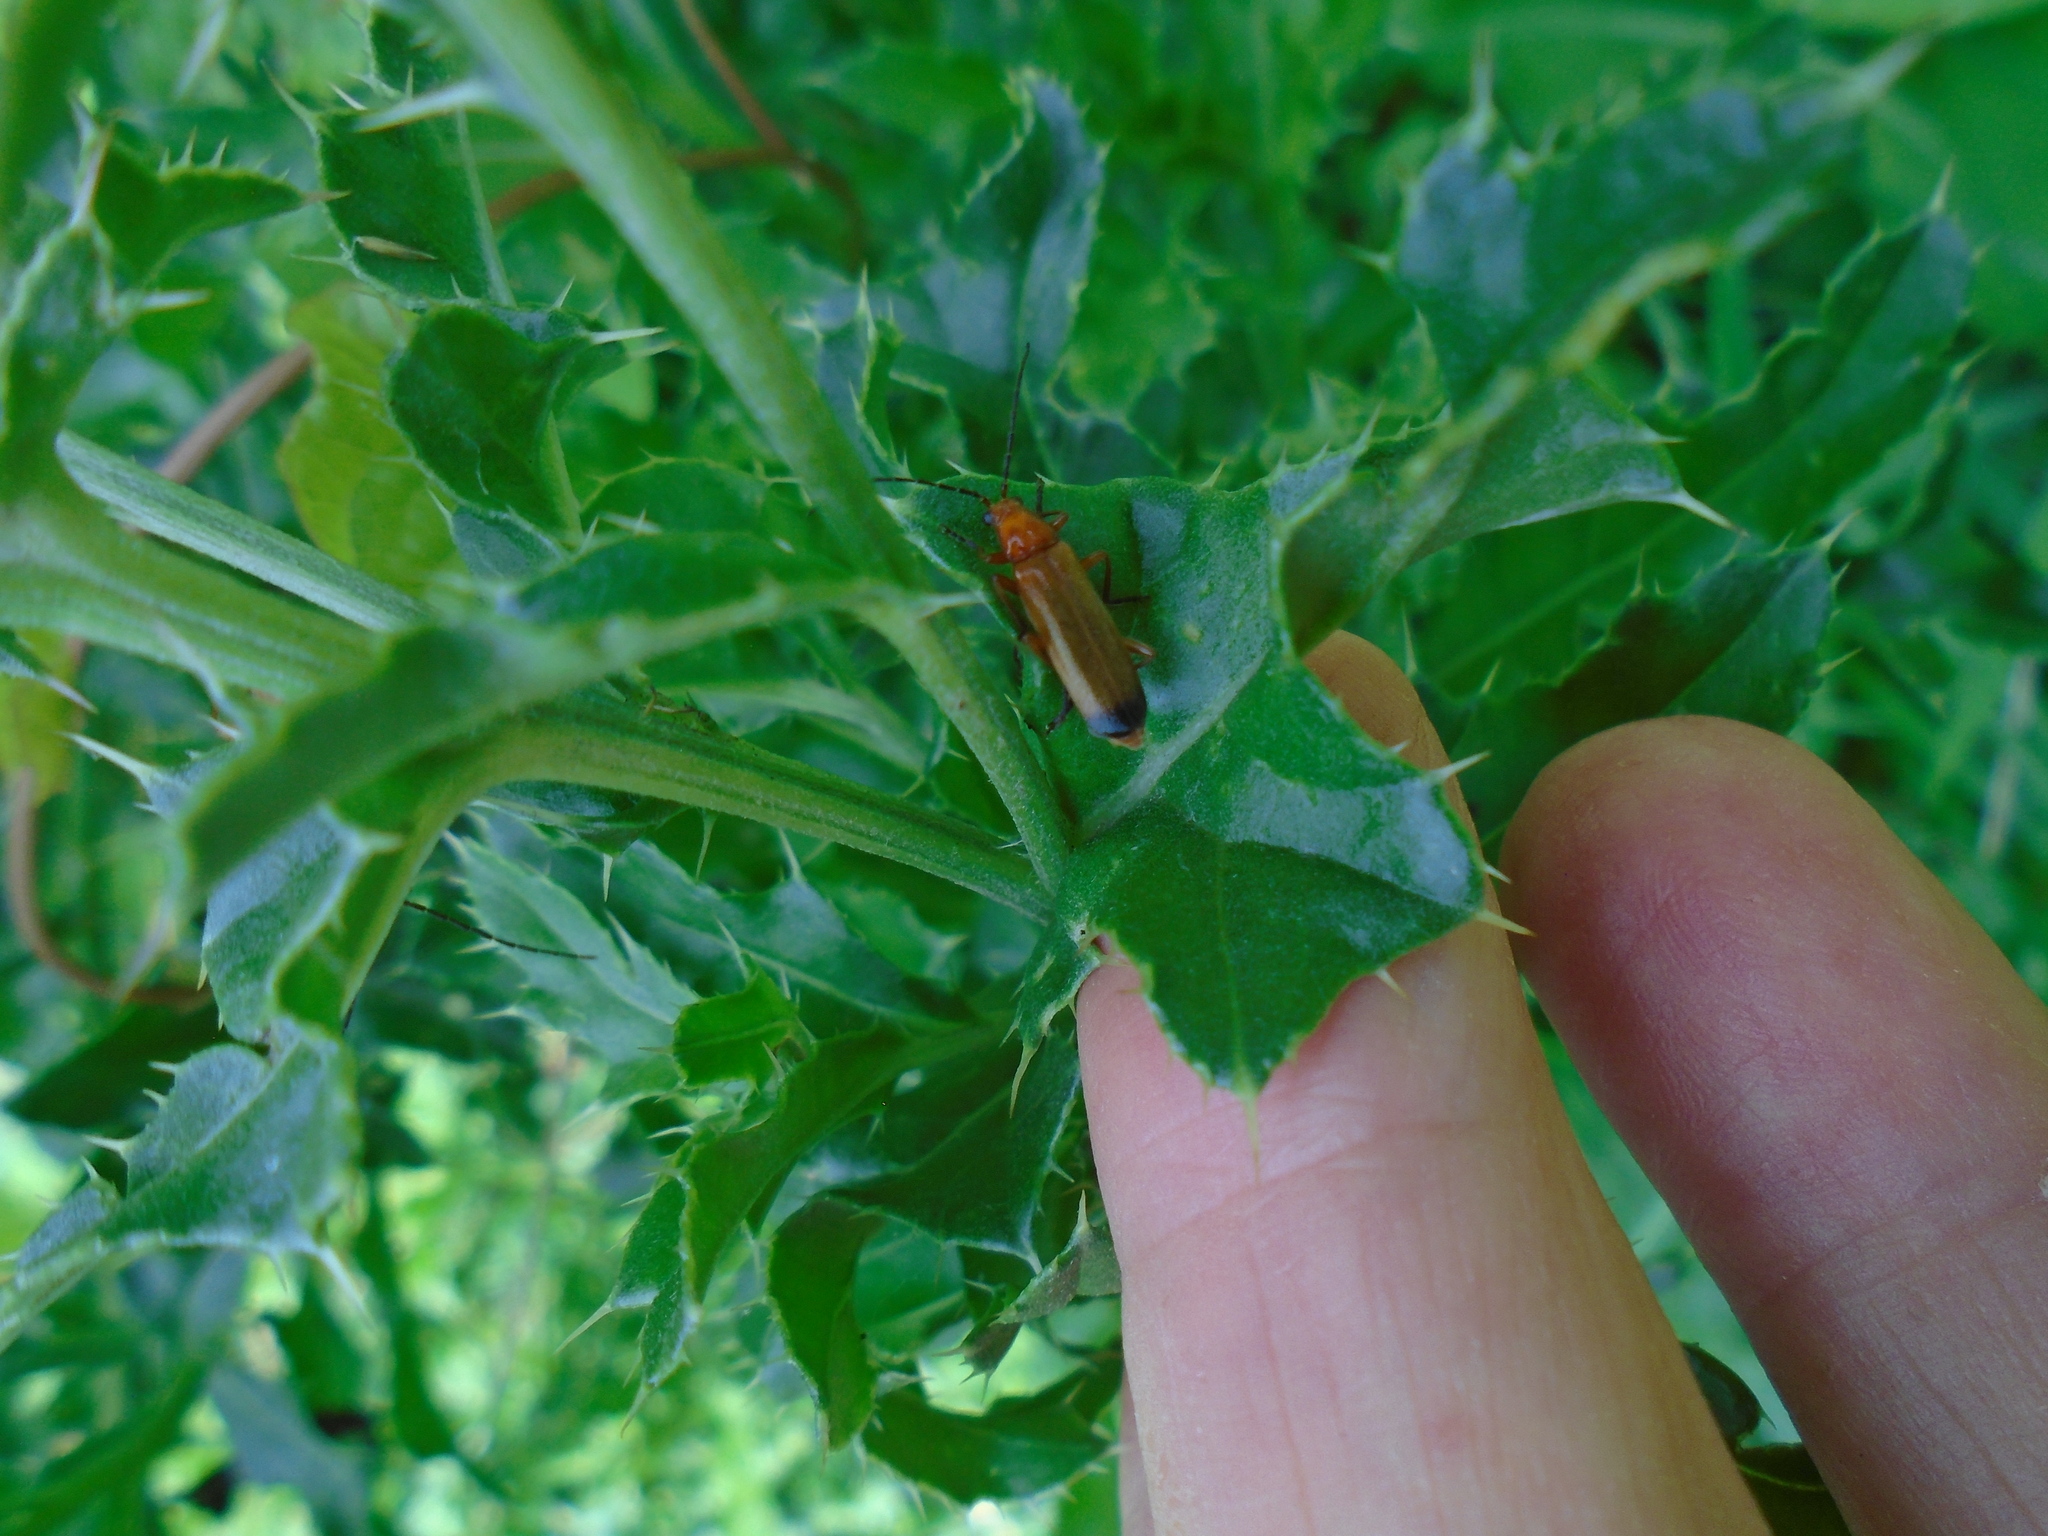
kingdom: Animalia
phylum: Arthropoda
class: Insecta
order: Coleoptera
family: Cantharidae
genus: Rhagonycha
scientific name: Rhagonycha fulva
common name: Common red soldier beetle
